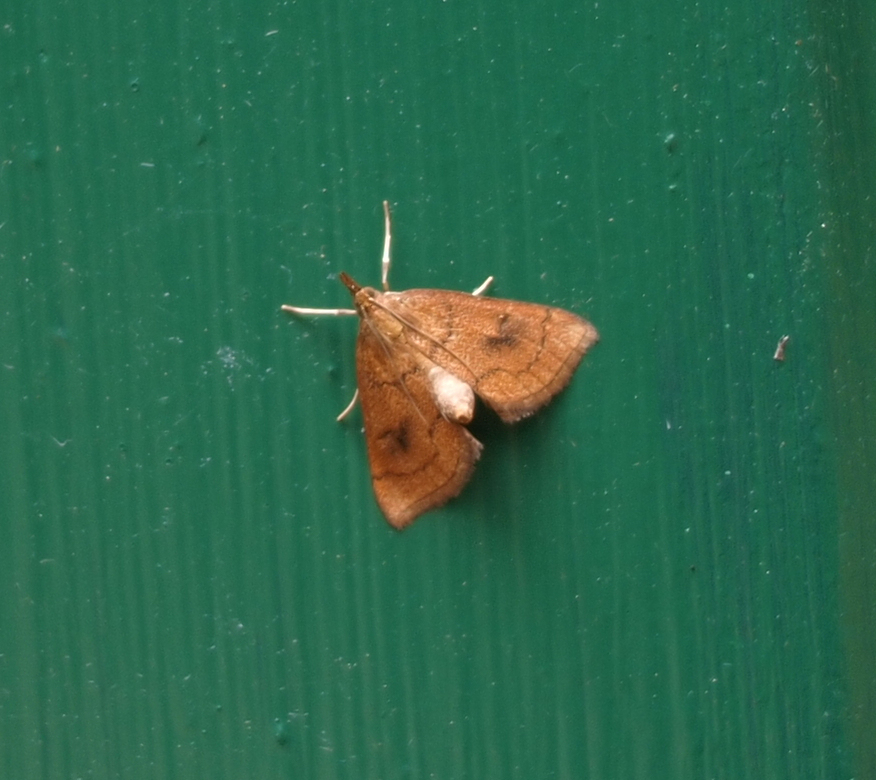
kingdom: Animalia
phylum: Arthropoda
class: Insecta
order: Lepidoptera
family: Crambidae
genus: Fumibotys
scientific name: Fumibotys fumalis
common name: Mint root borer moth
